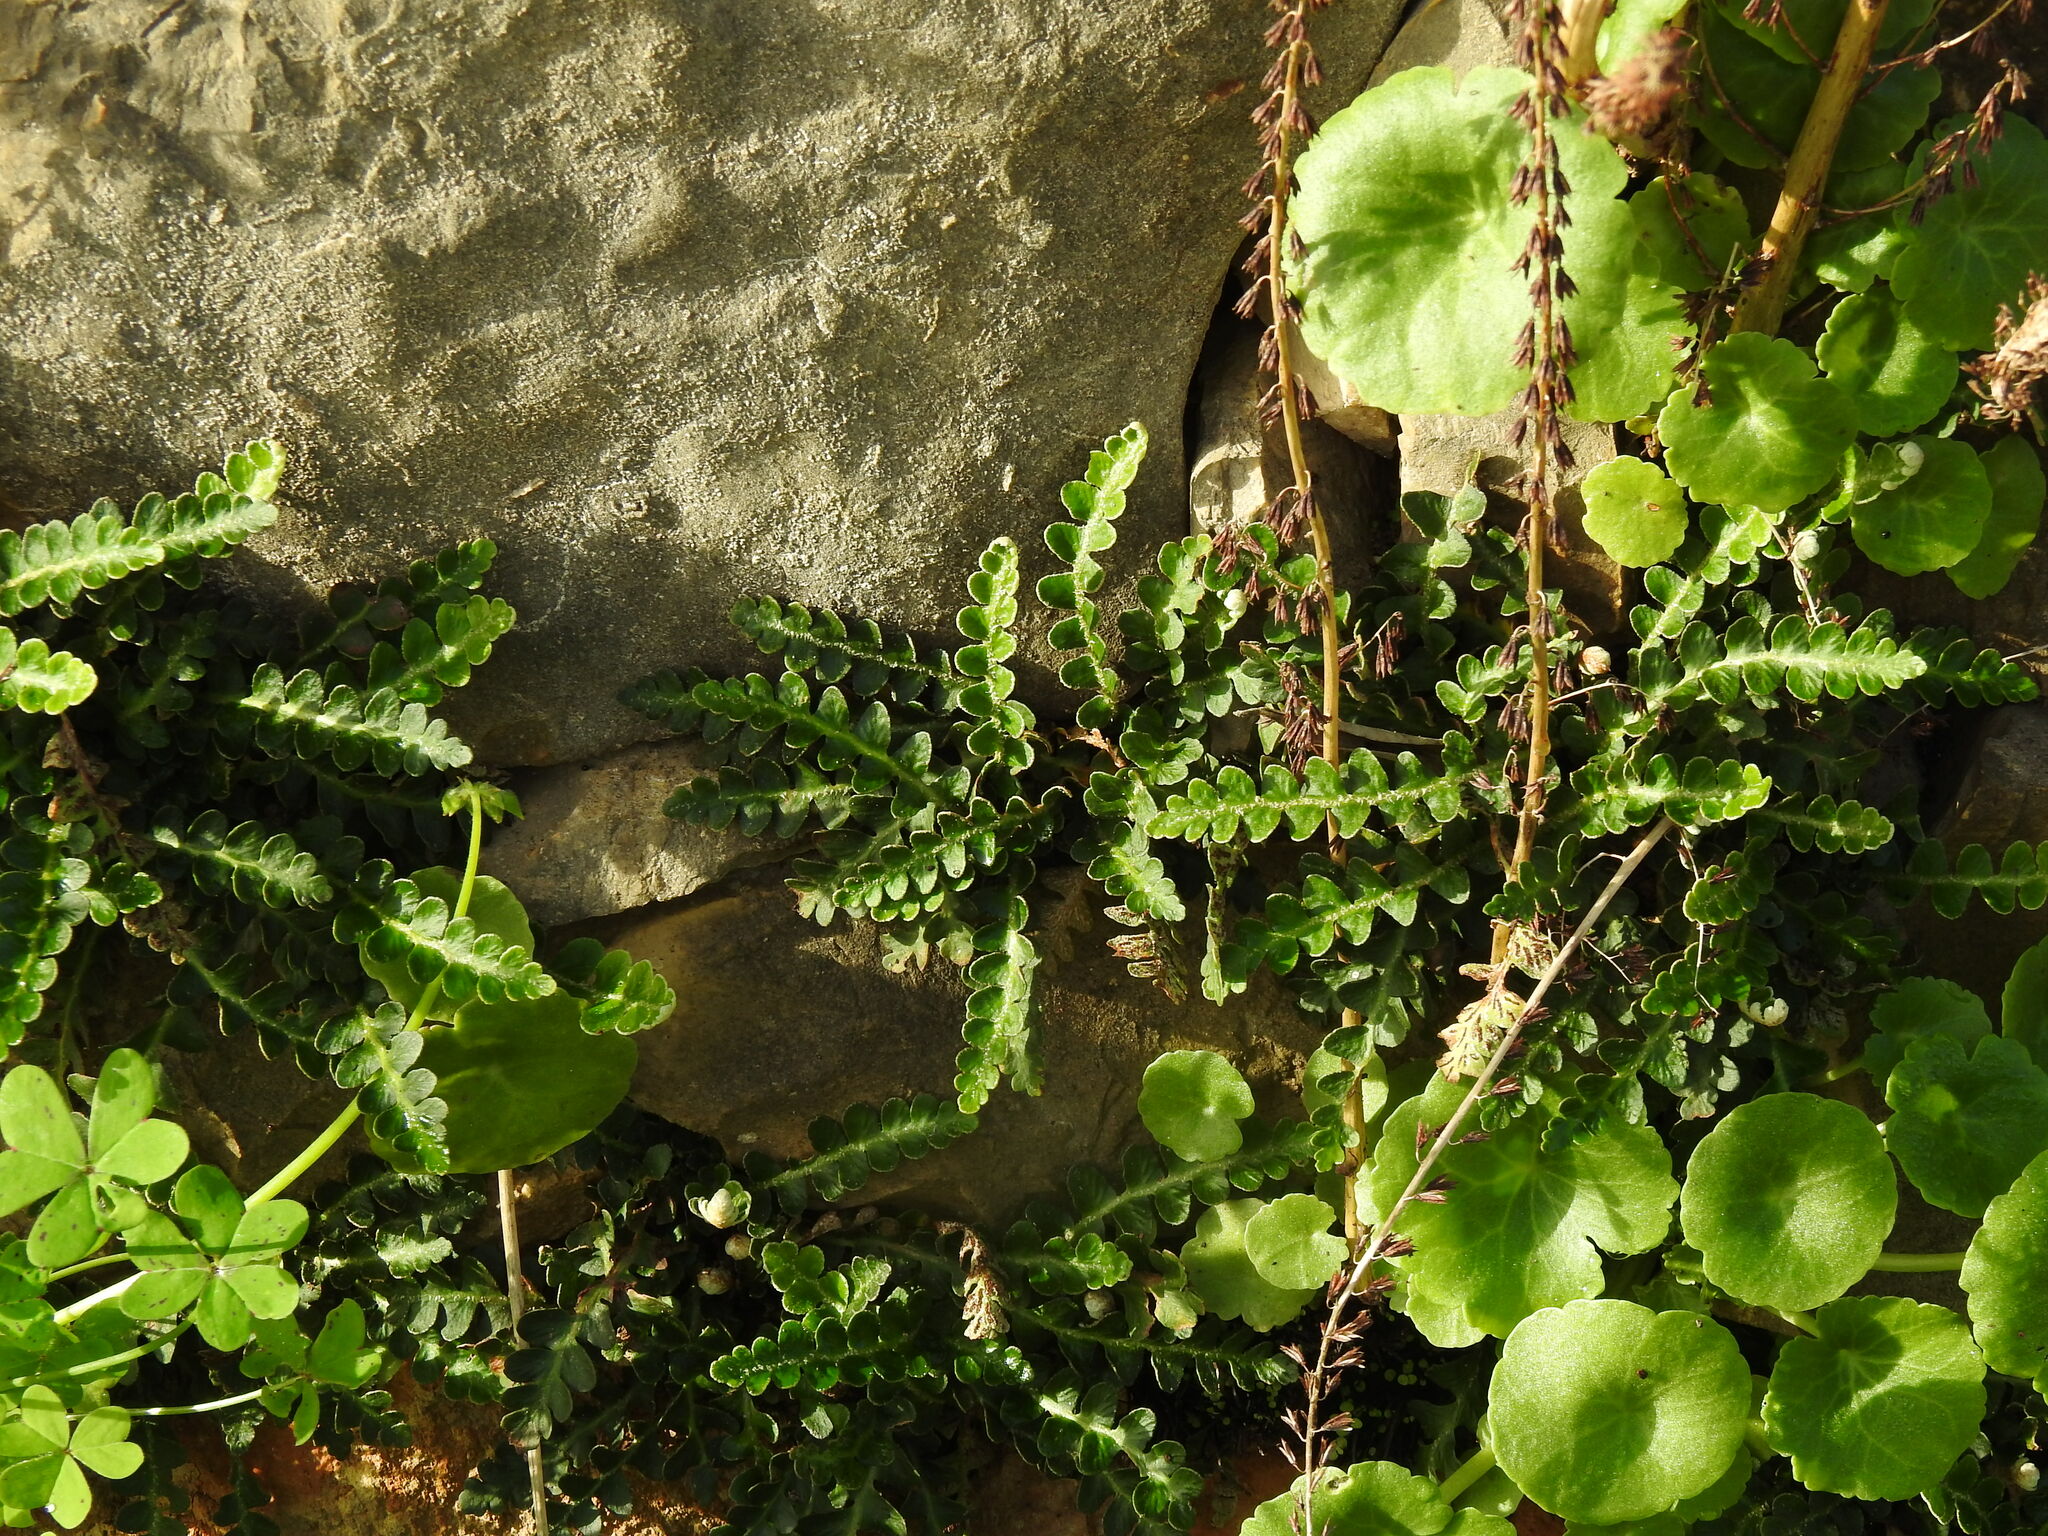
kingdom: Plantae
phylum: Tracheophyta
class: Polypodiopsida
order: Polypodiales
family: Aspleniaceae
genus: Asplenium
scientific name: Asplenium ceterach
